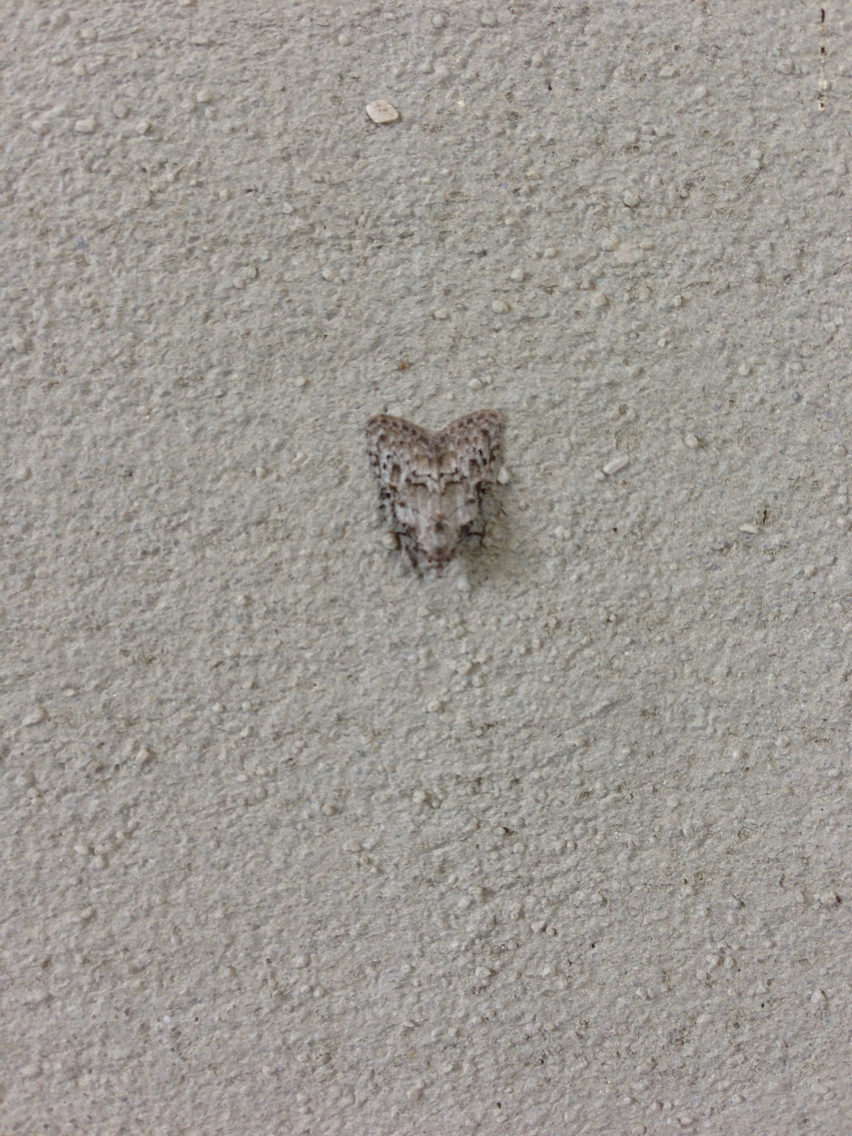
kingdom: Animalia
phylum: Arthropoda
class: Insecta
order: Lepidoptera
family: Nolidae
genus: Meganola
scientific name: Meganola spodia
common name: Ashy meganola moth
